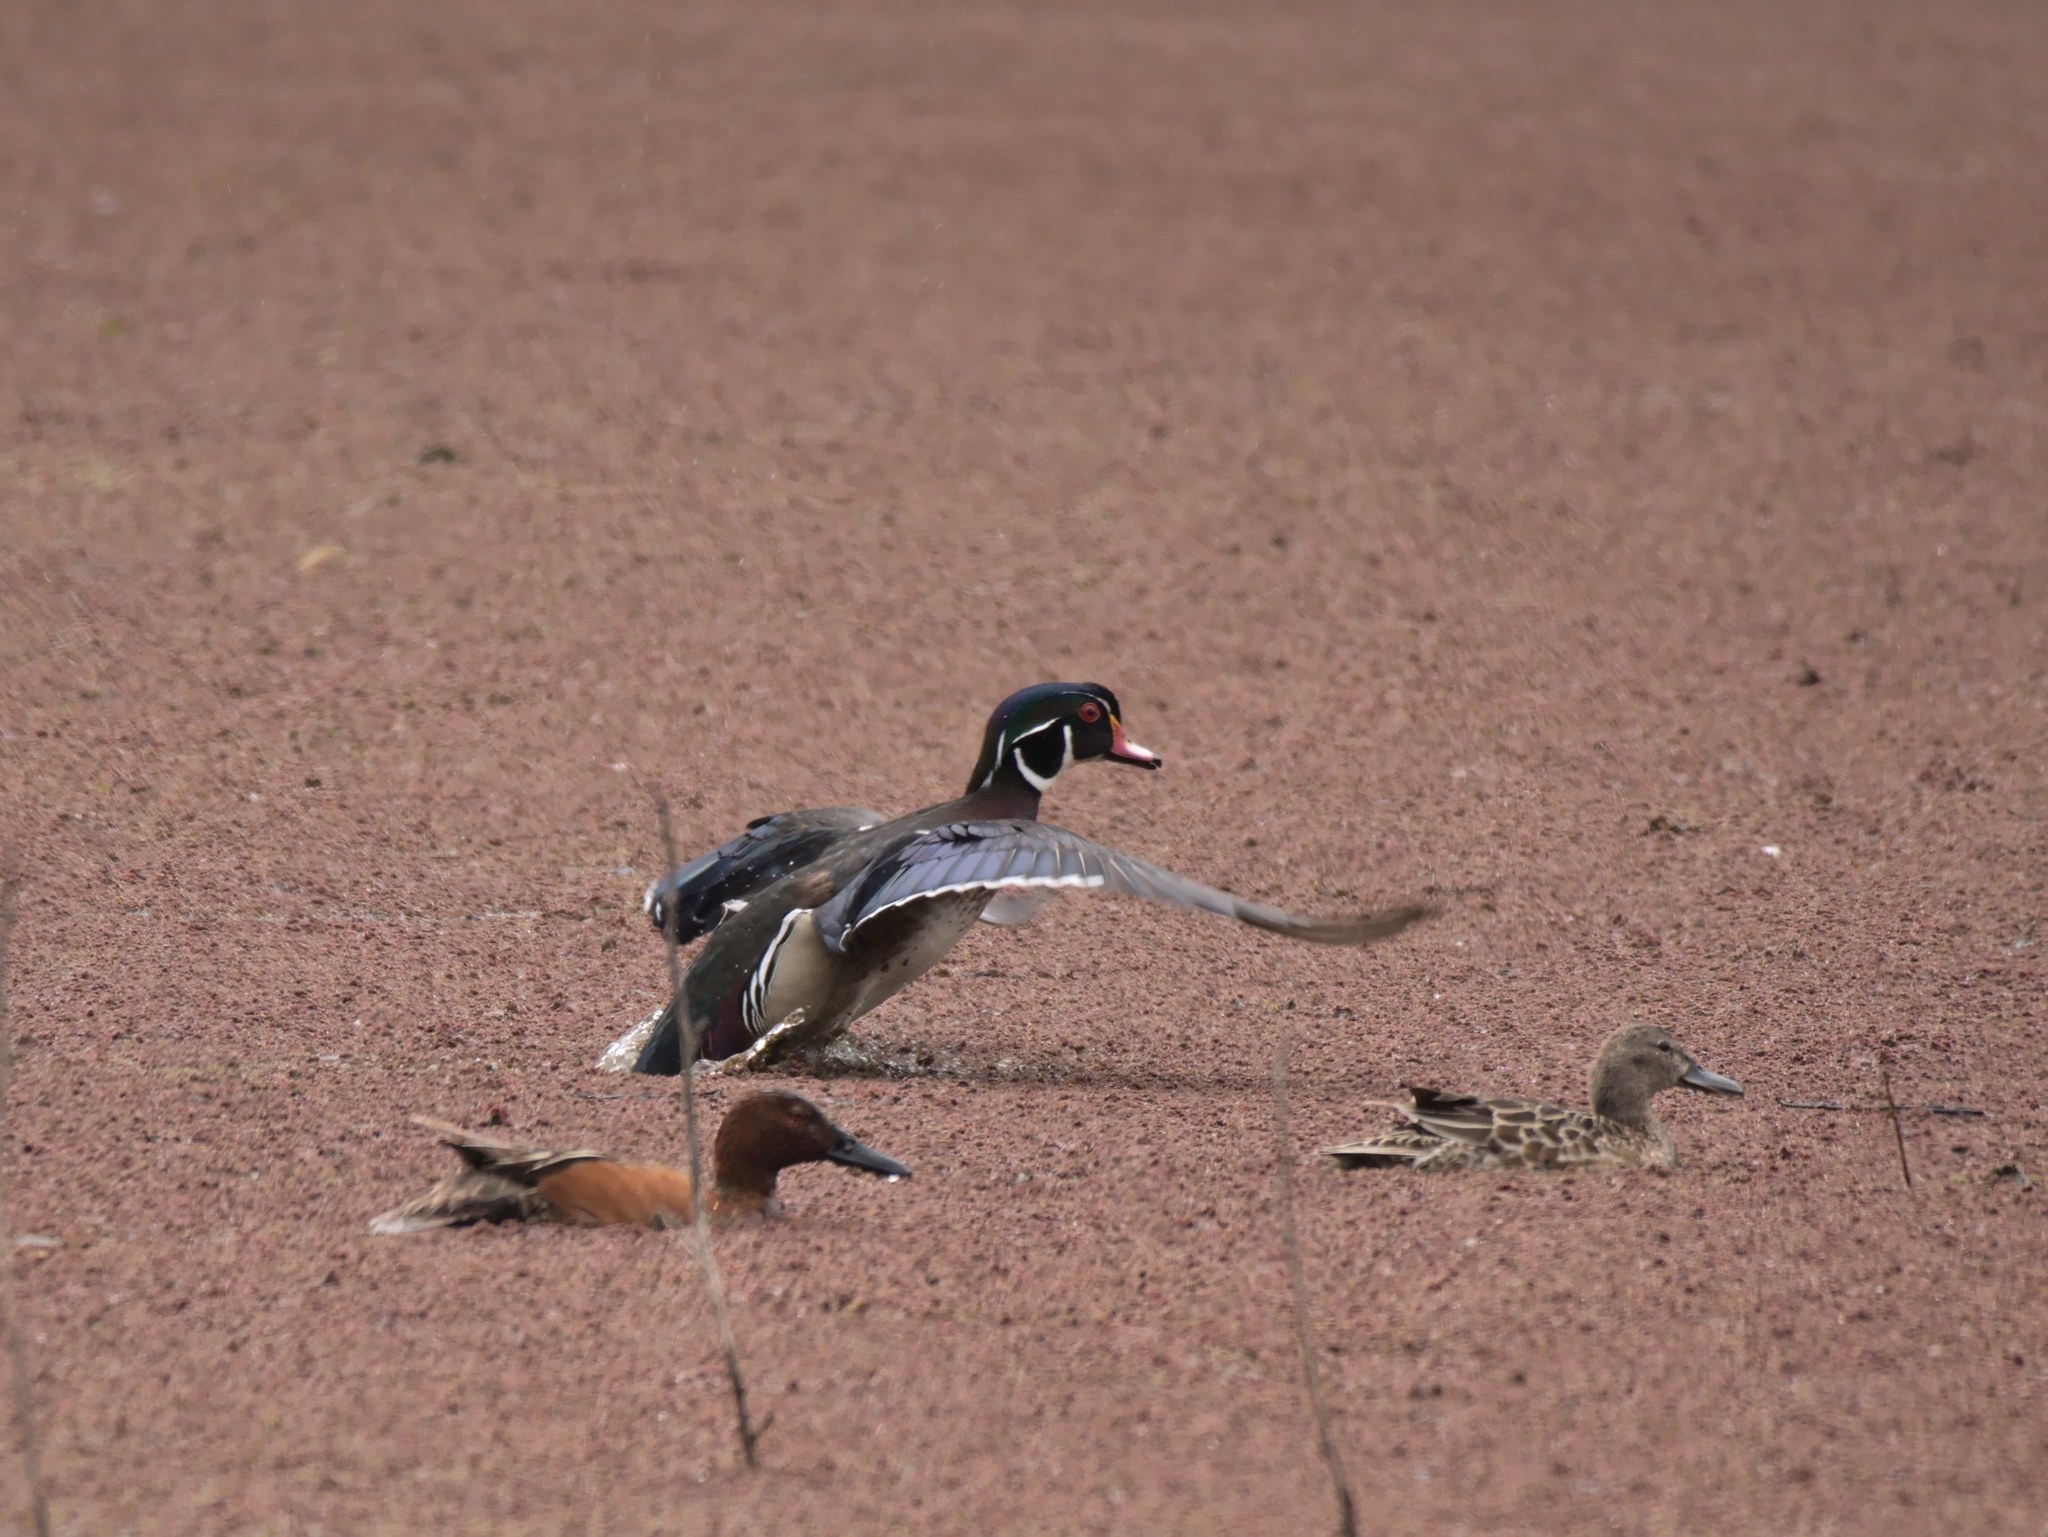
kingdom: Animalia
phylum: Chordata
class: Aves
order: Anseriformes
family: Anatidae
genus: Aix
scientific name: Aix sponsa
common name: Wood duck
